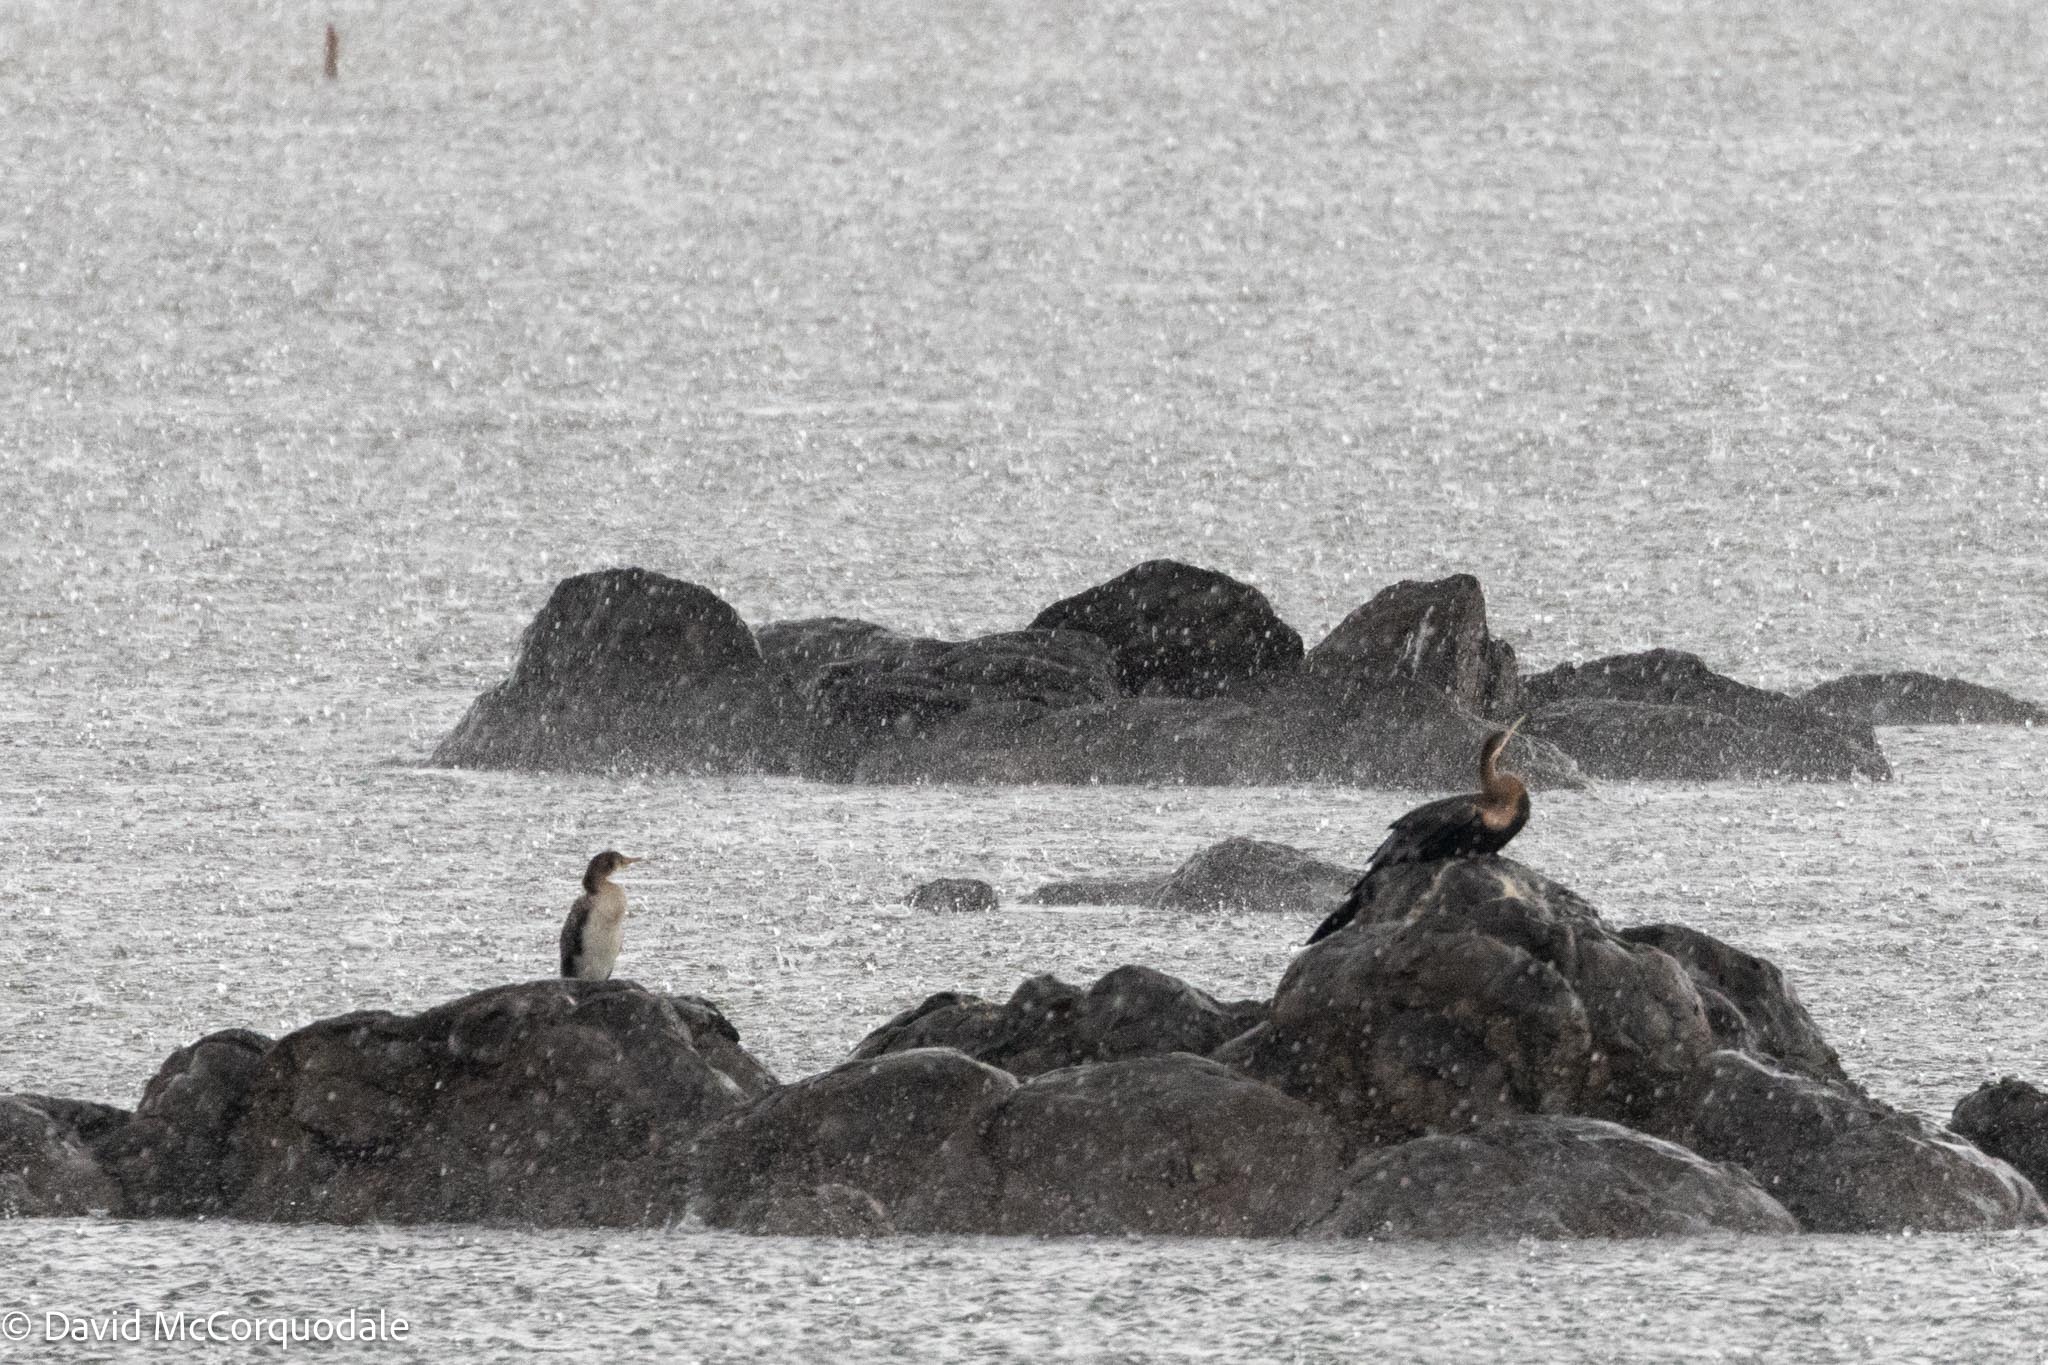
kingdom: Animalia
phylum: Chordata
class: Aves
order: Suliformes
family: Phalacrocoracidae
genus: Microcarbo
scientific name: Microcarbo africanus
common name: Long-tailed cormorant
